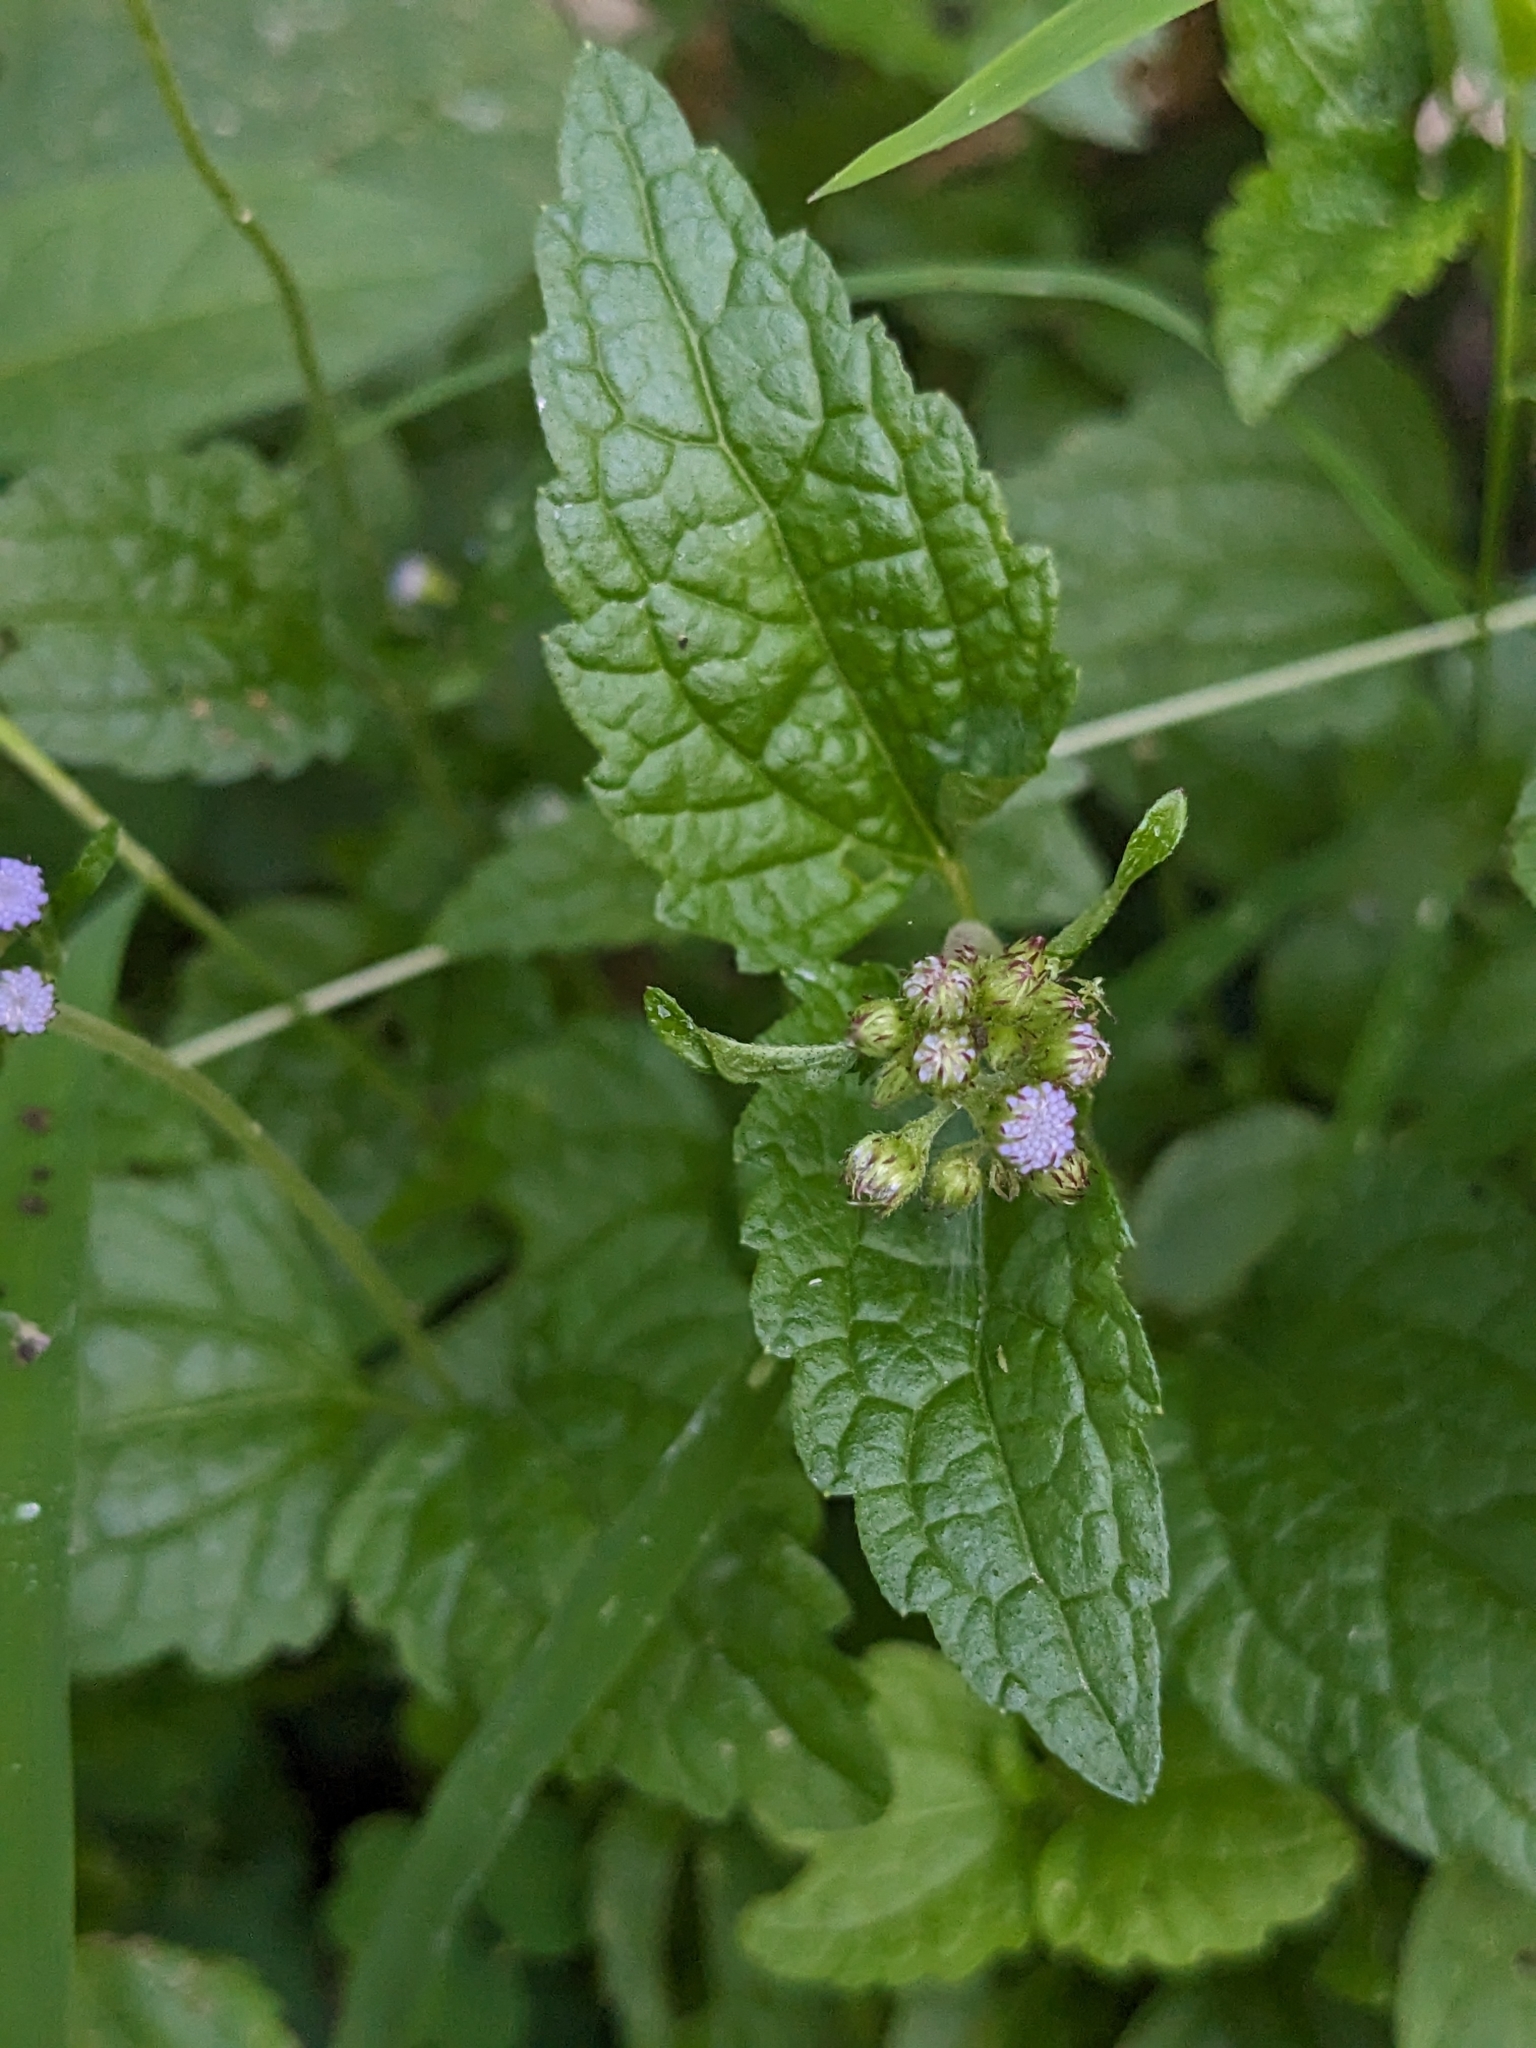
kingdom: Plantae
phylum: Tracheophyta
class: Magnoliopsida
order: Asterales
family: Asteraceae
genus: Conoclinium
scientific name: Conoclinium coelestinum
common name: Blue mistflower
